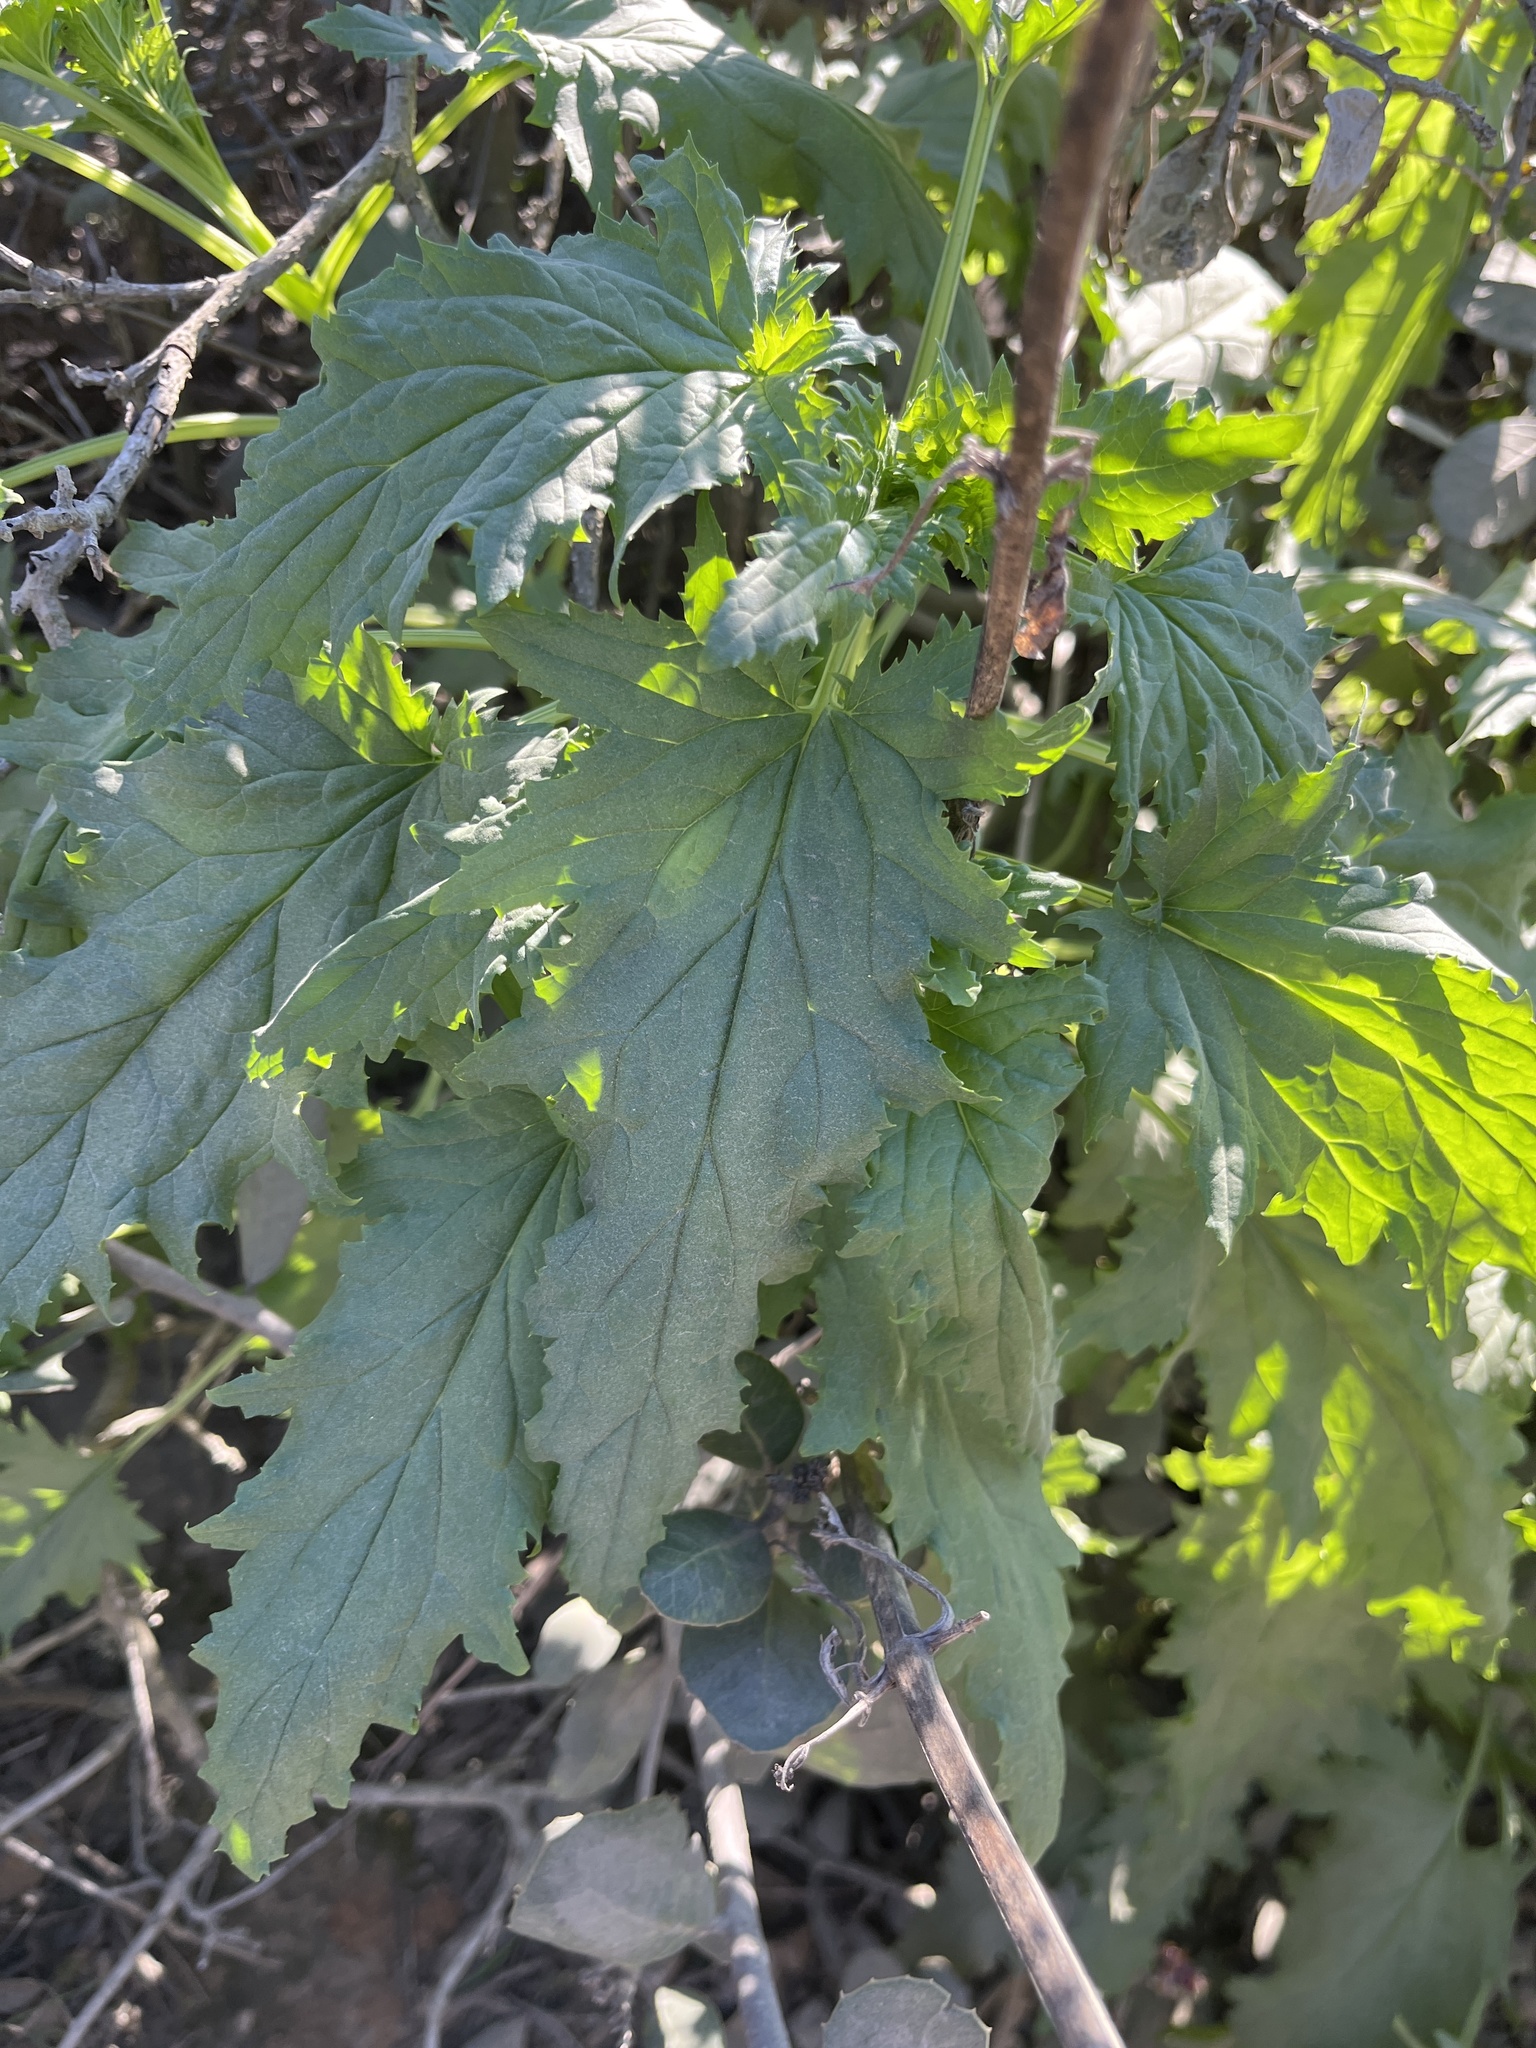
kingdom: Plantae
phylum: Tracheophyta
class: Magnoliopsida
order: Lamiales
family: Scrophulariaceae
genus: Scrophularia
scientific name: Scrophularia californica
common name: California figwort
